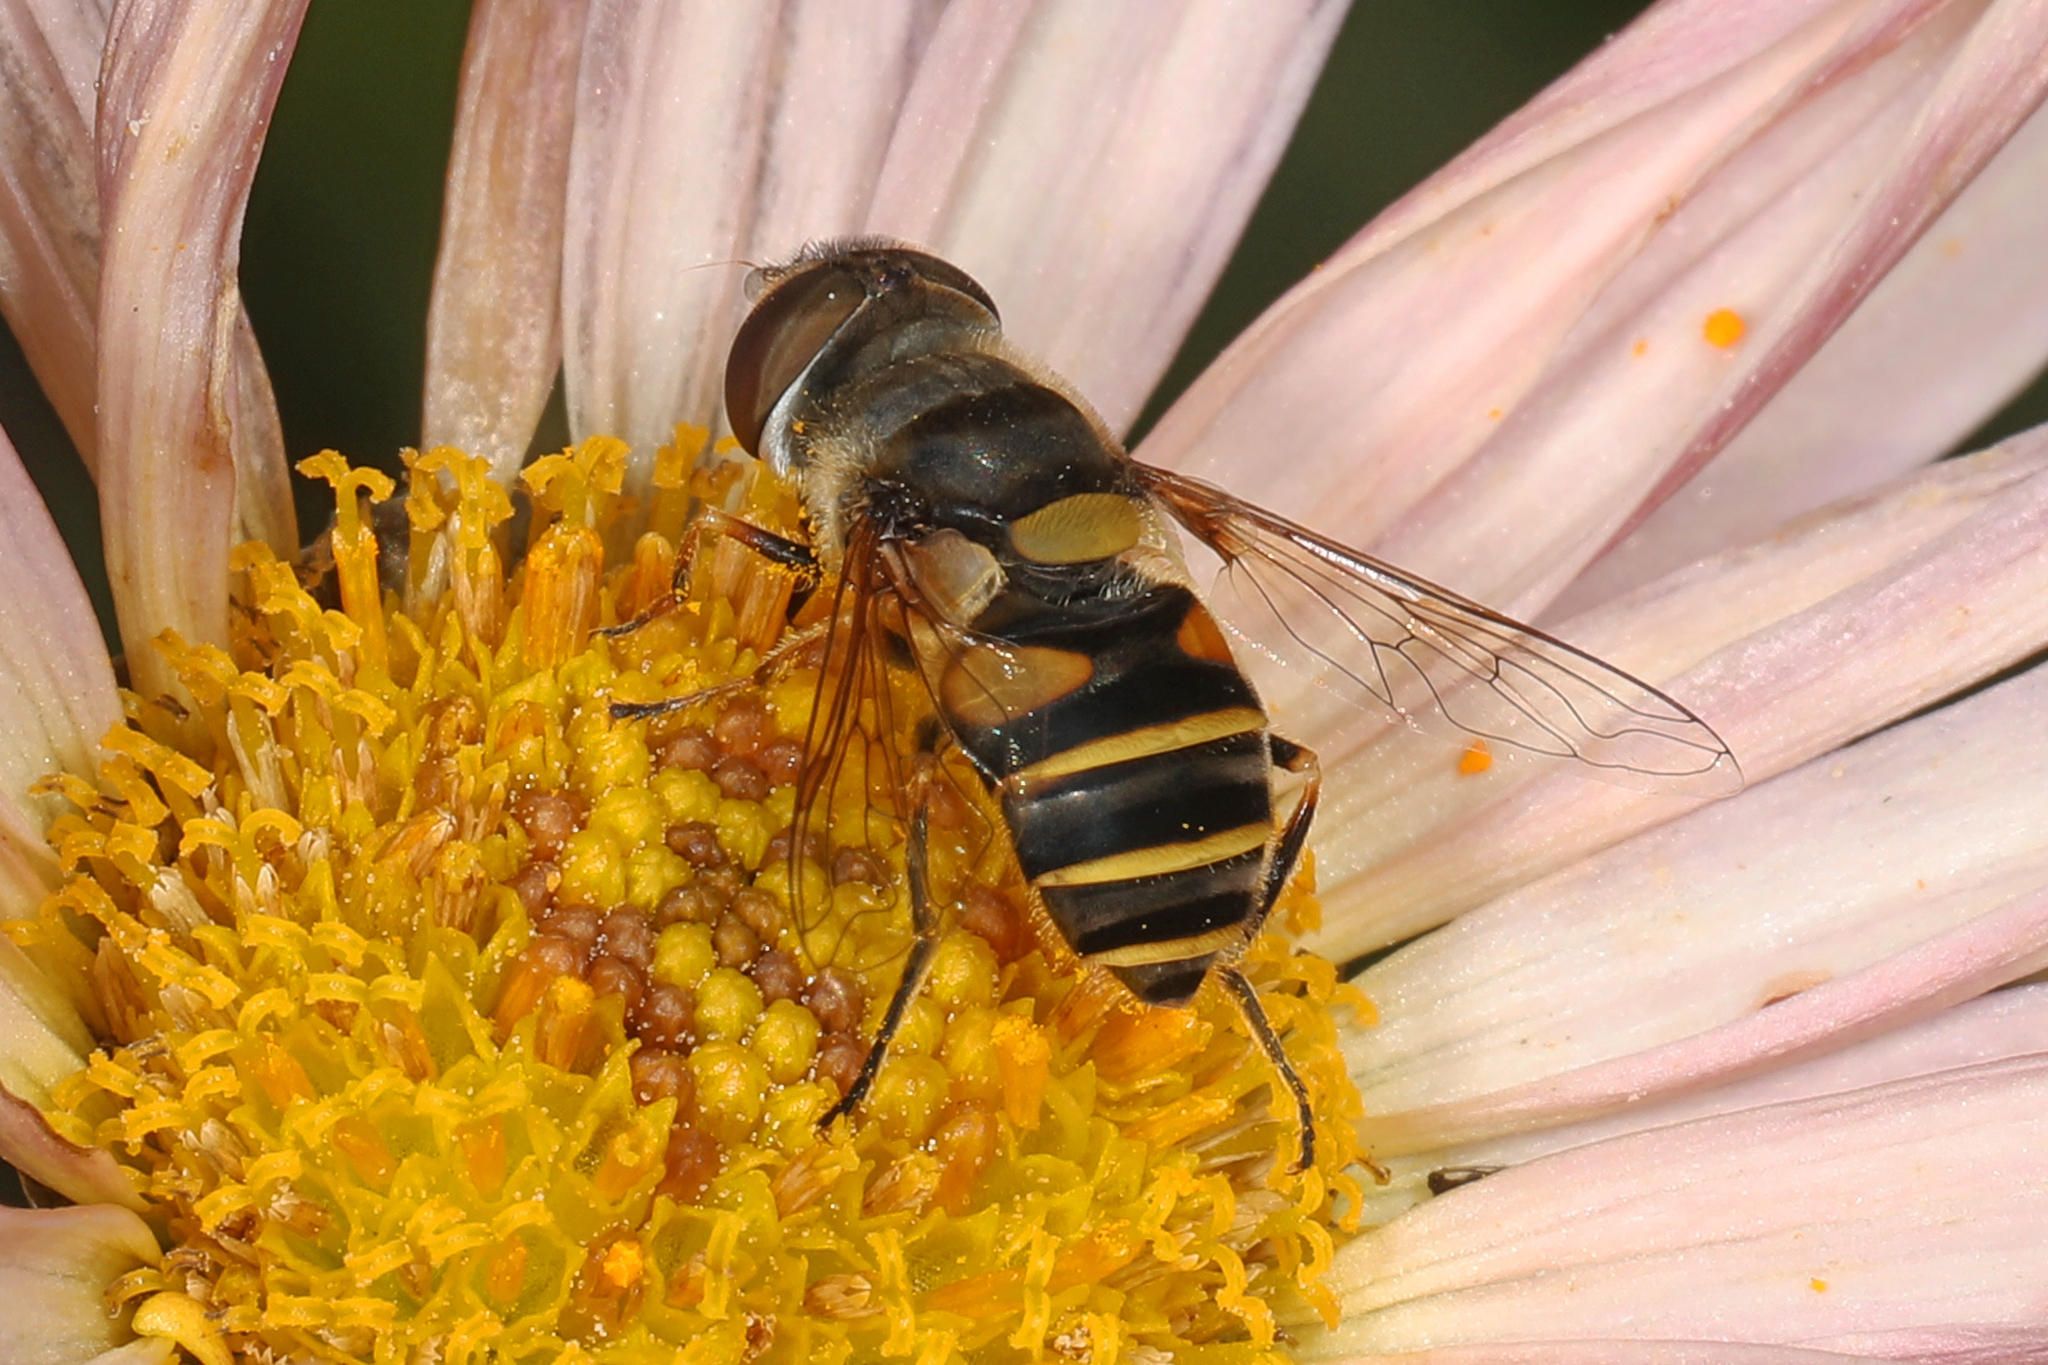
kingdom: Animalia
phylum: Arthropoda
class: Insecta
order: Diptera
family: Syrphidae
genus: Eristalis
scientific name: Eristalis transversa
